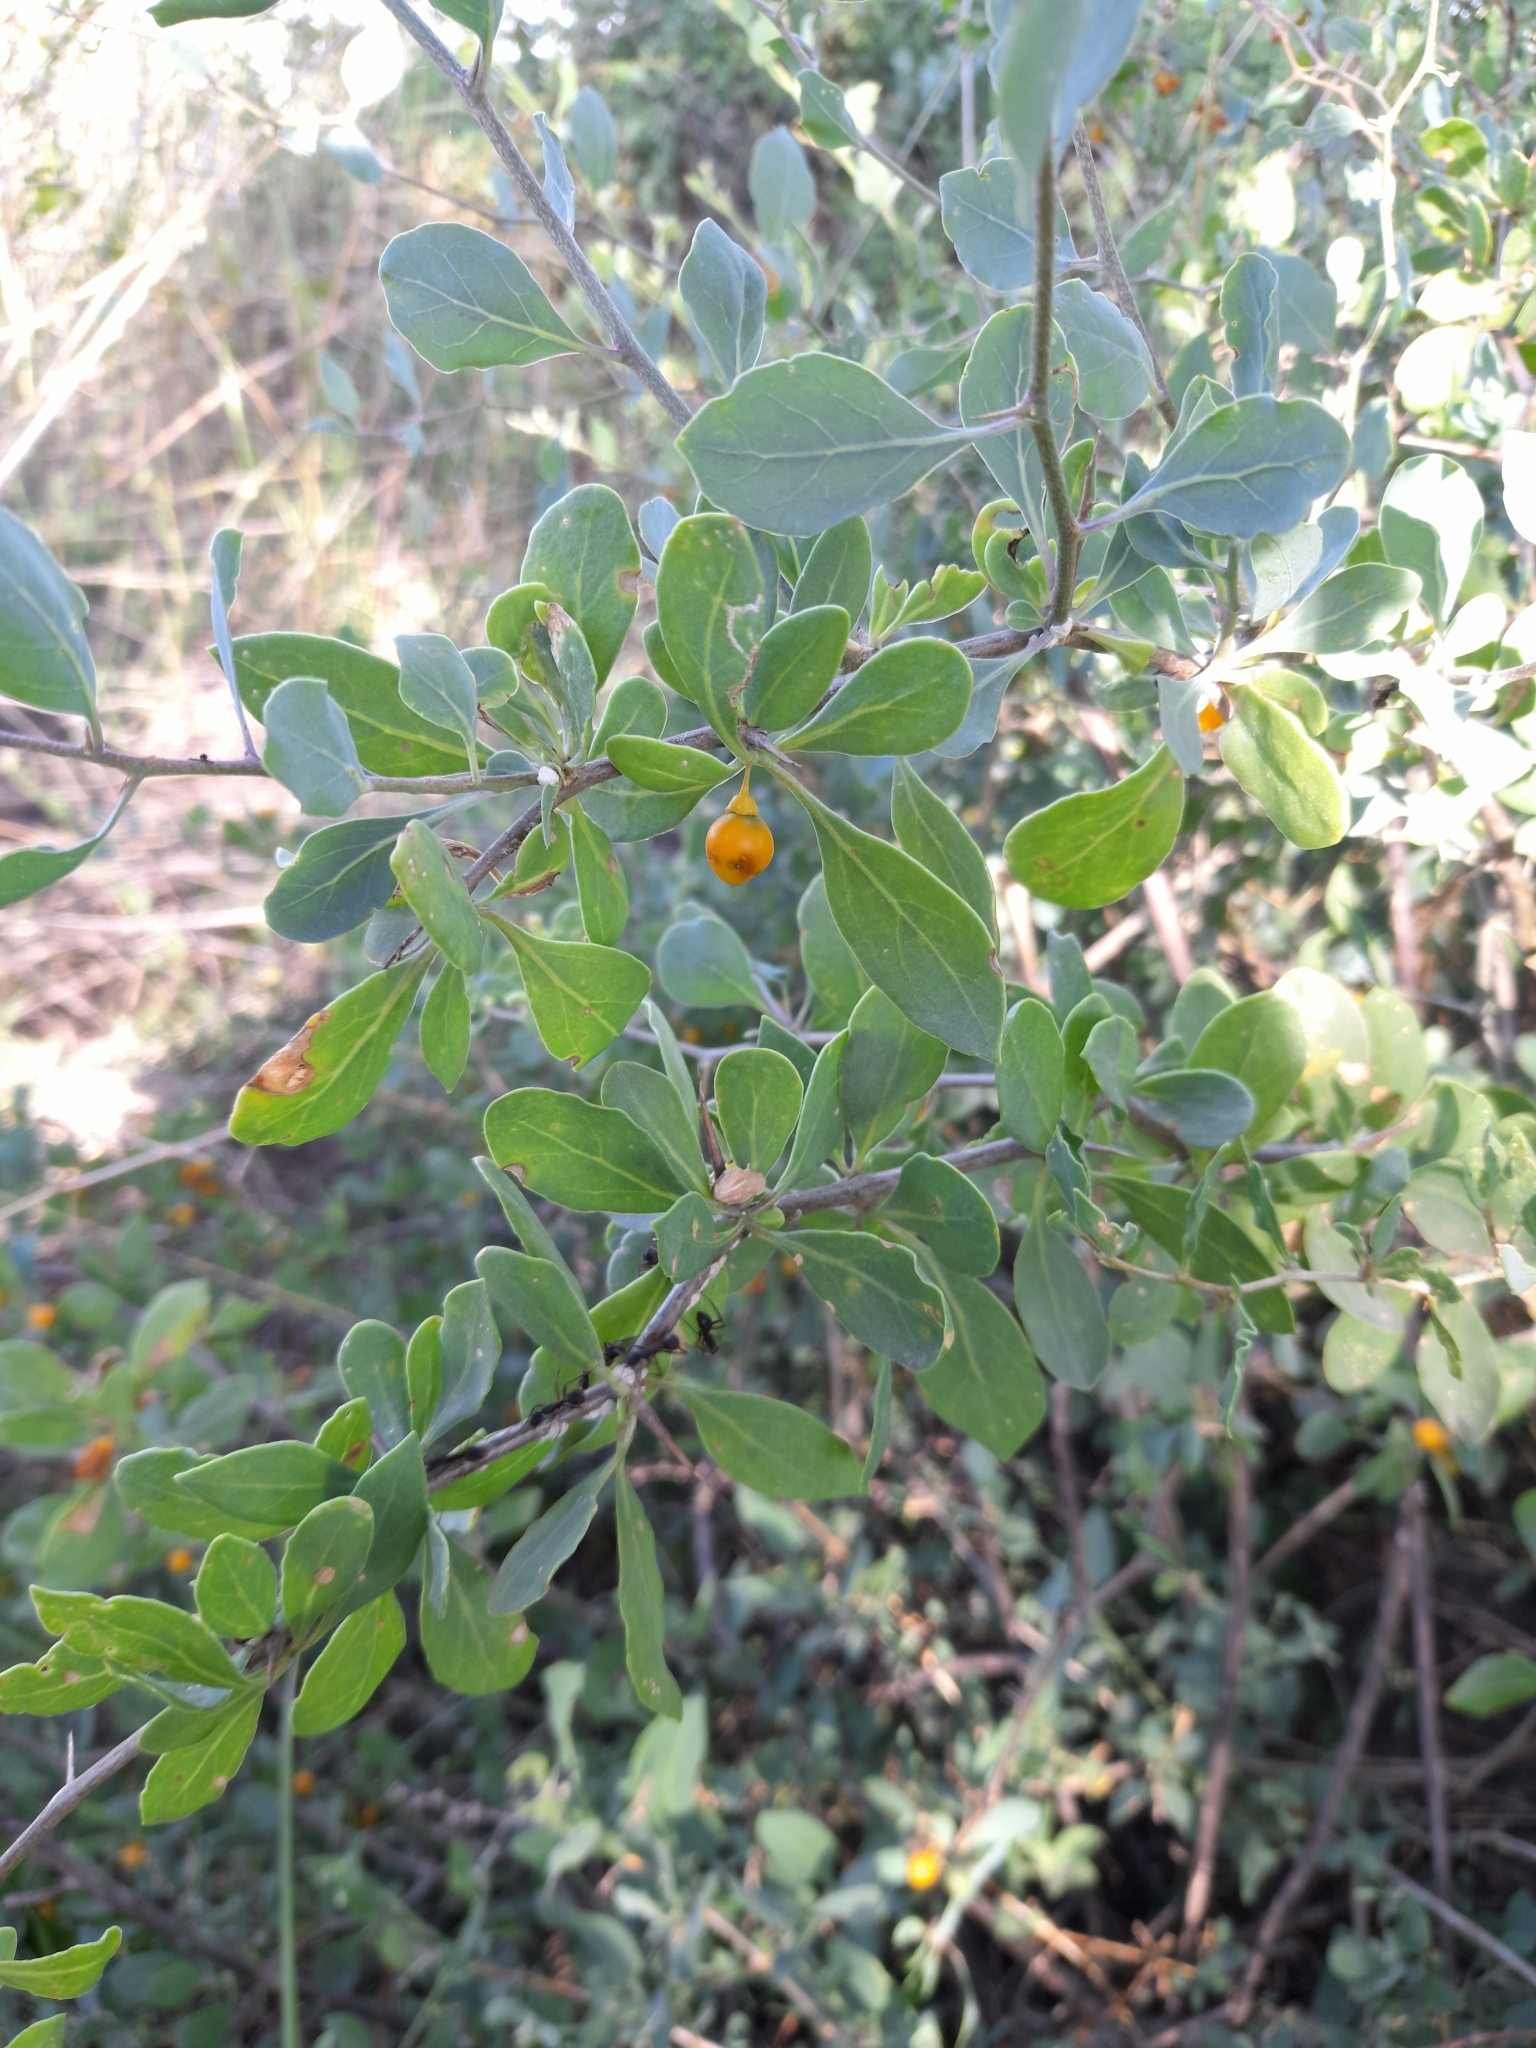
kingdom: Plantae
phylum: Tracheophyta
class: Magnoliopsida
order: Solanales
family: Solanaceae
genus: Lycium
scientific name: Lycium boerhaaviifolium
